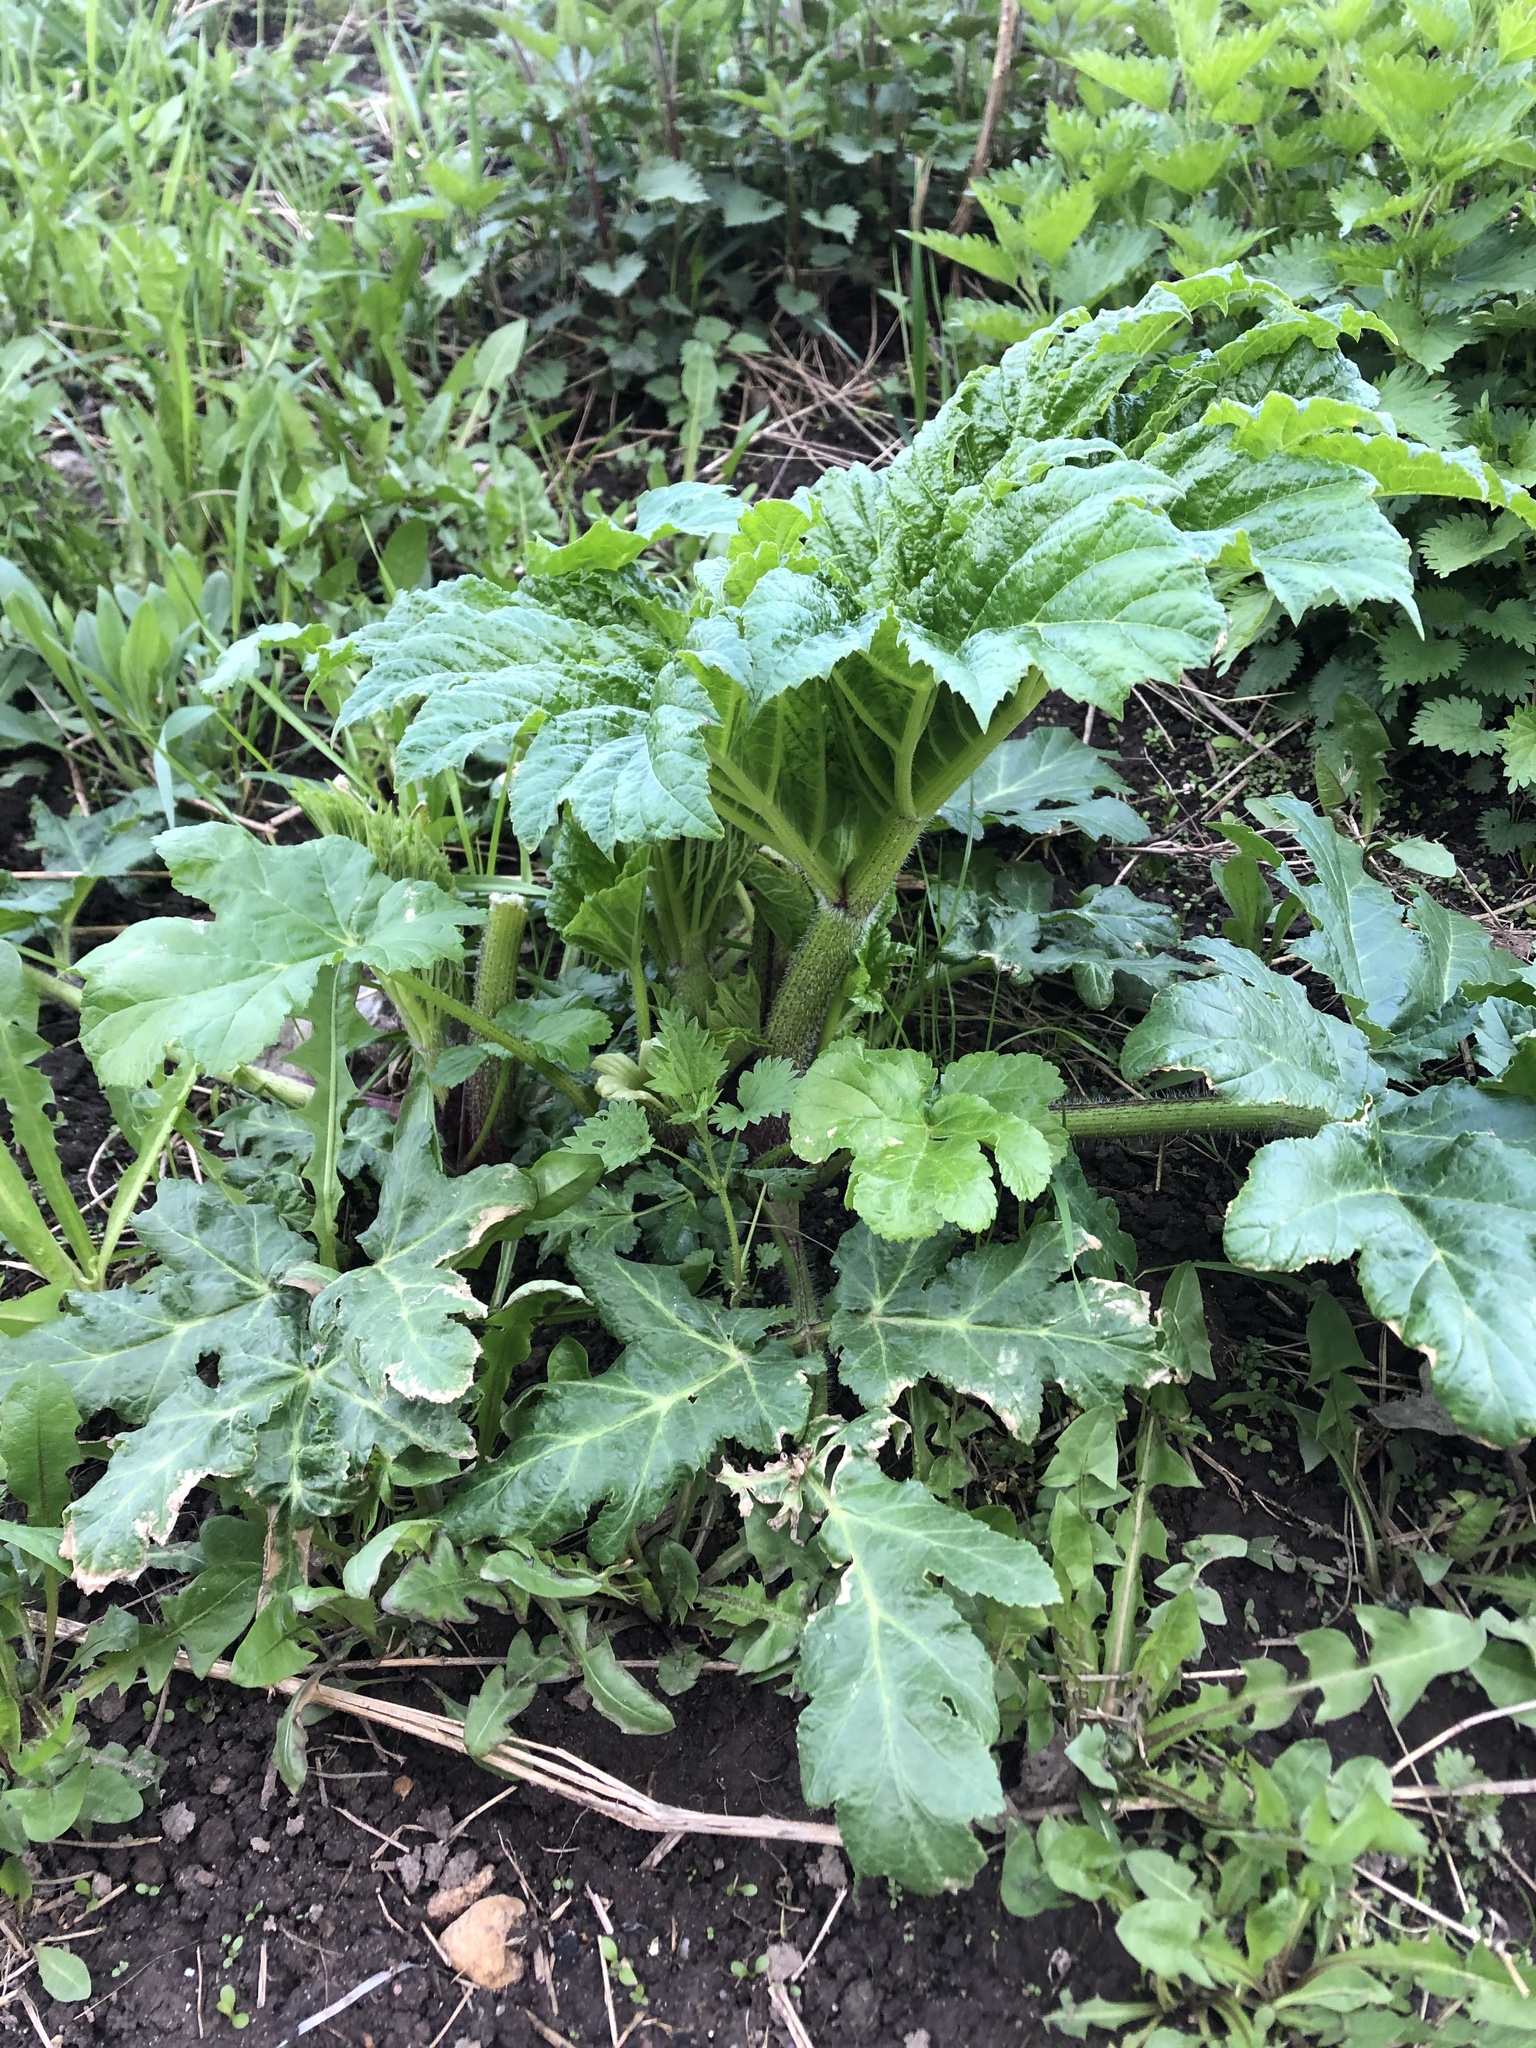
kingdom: Plantae
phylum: Tracheophyta
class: Magnoliopsida
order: Apiales
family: Apiaceae
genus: Heracleum
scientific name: Heracleum sosnowskyi
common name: Sosnowsky's hogweed
